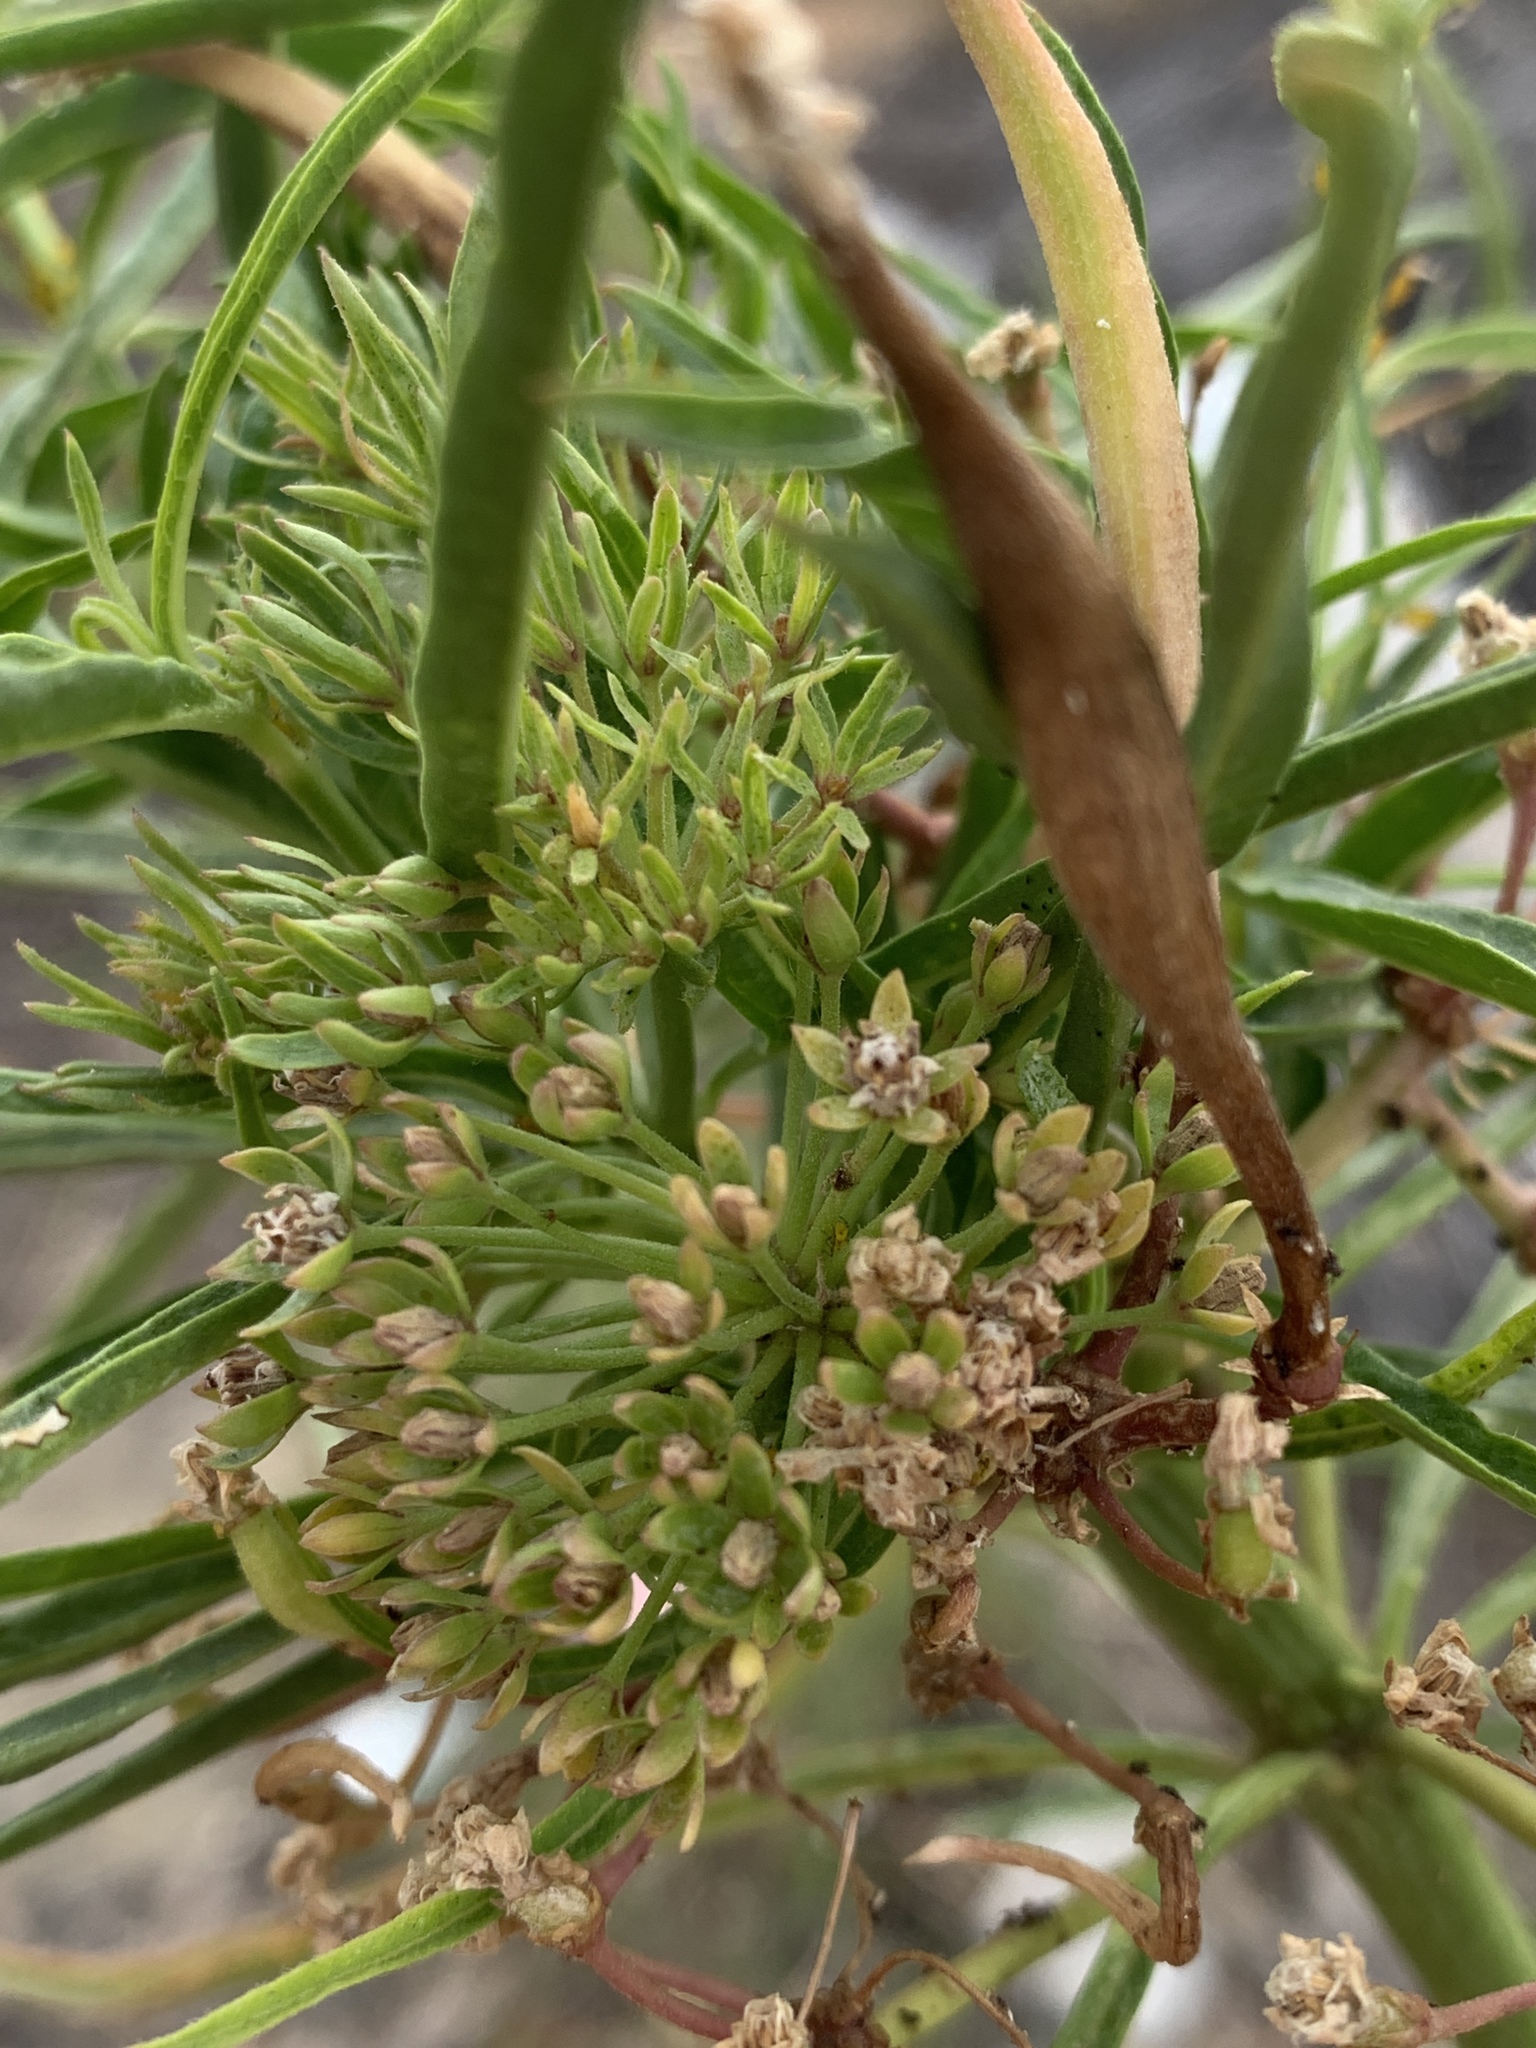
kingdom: Plantae
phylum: Tracheophyta
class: Magnoliopsida
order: Gentianales
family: Apocynaceae
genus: Asclepias
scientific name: Asclepias fascicularis
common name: Mexican milkweed
